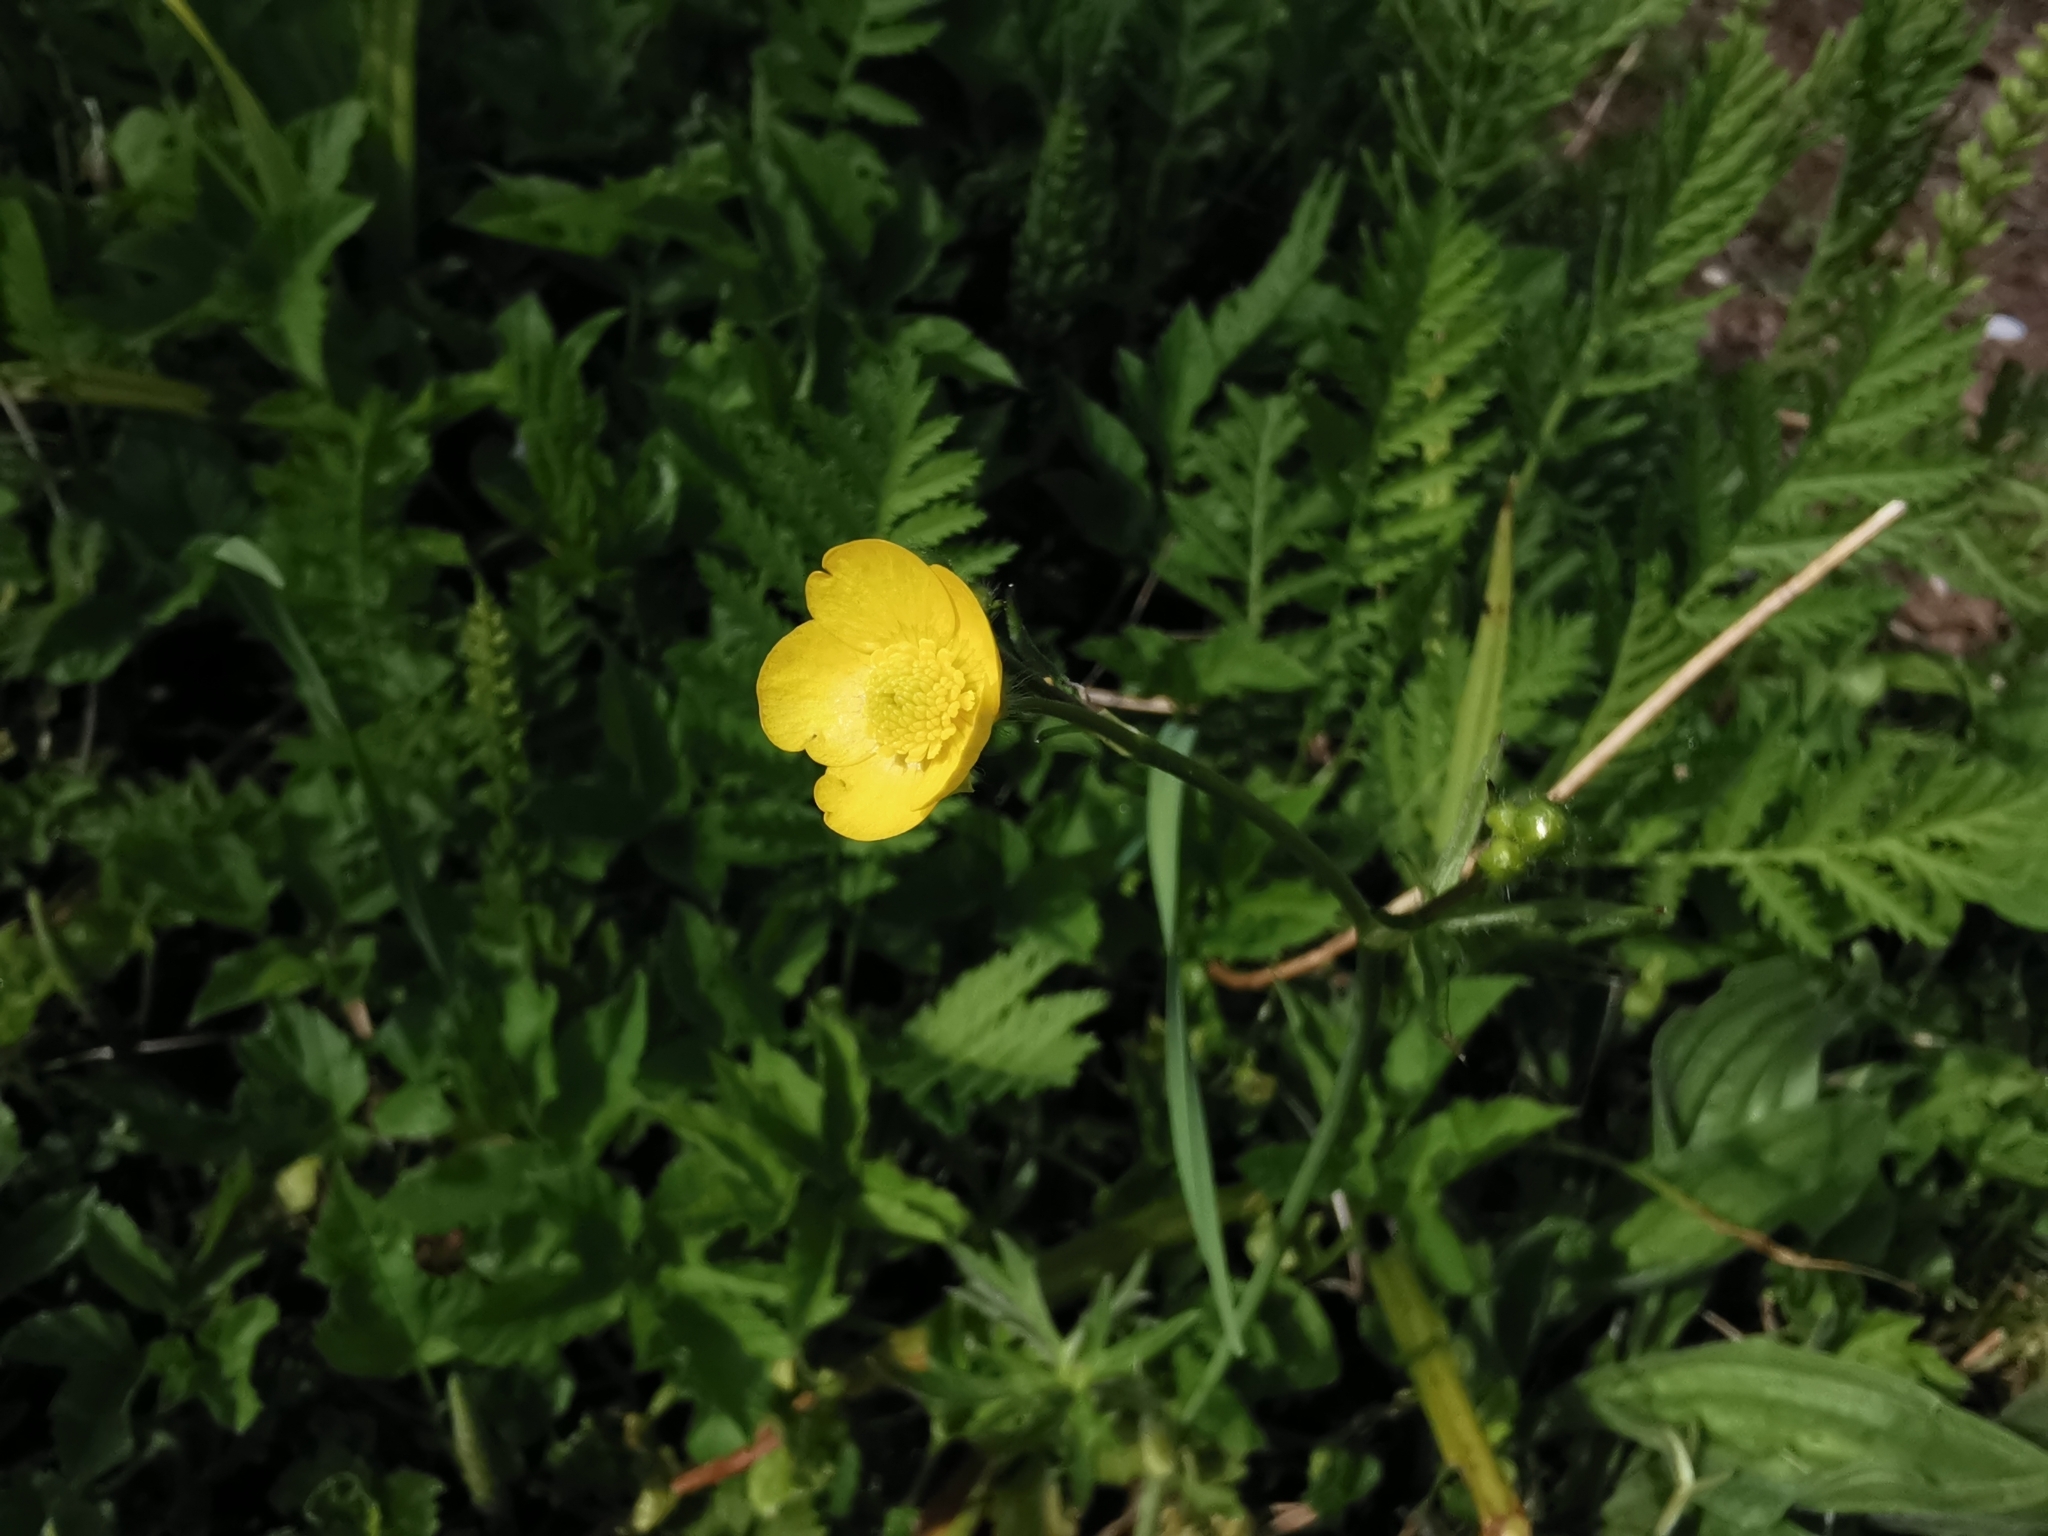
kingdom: Plantae
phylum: Tracheophyta
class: Magnoliopsida
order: Ranunculales
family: Ranunculaceae
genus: Ranunculus
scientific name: Ranunculus acris
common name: Meadow buttercup
